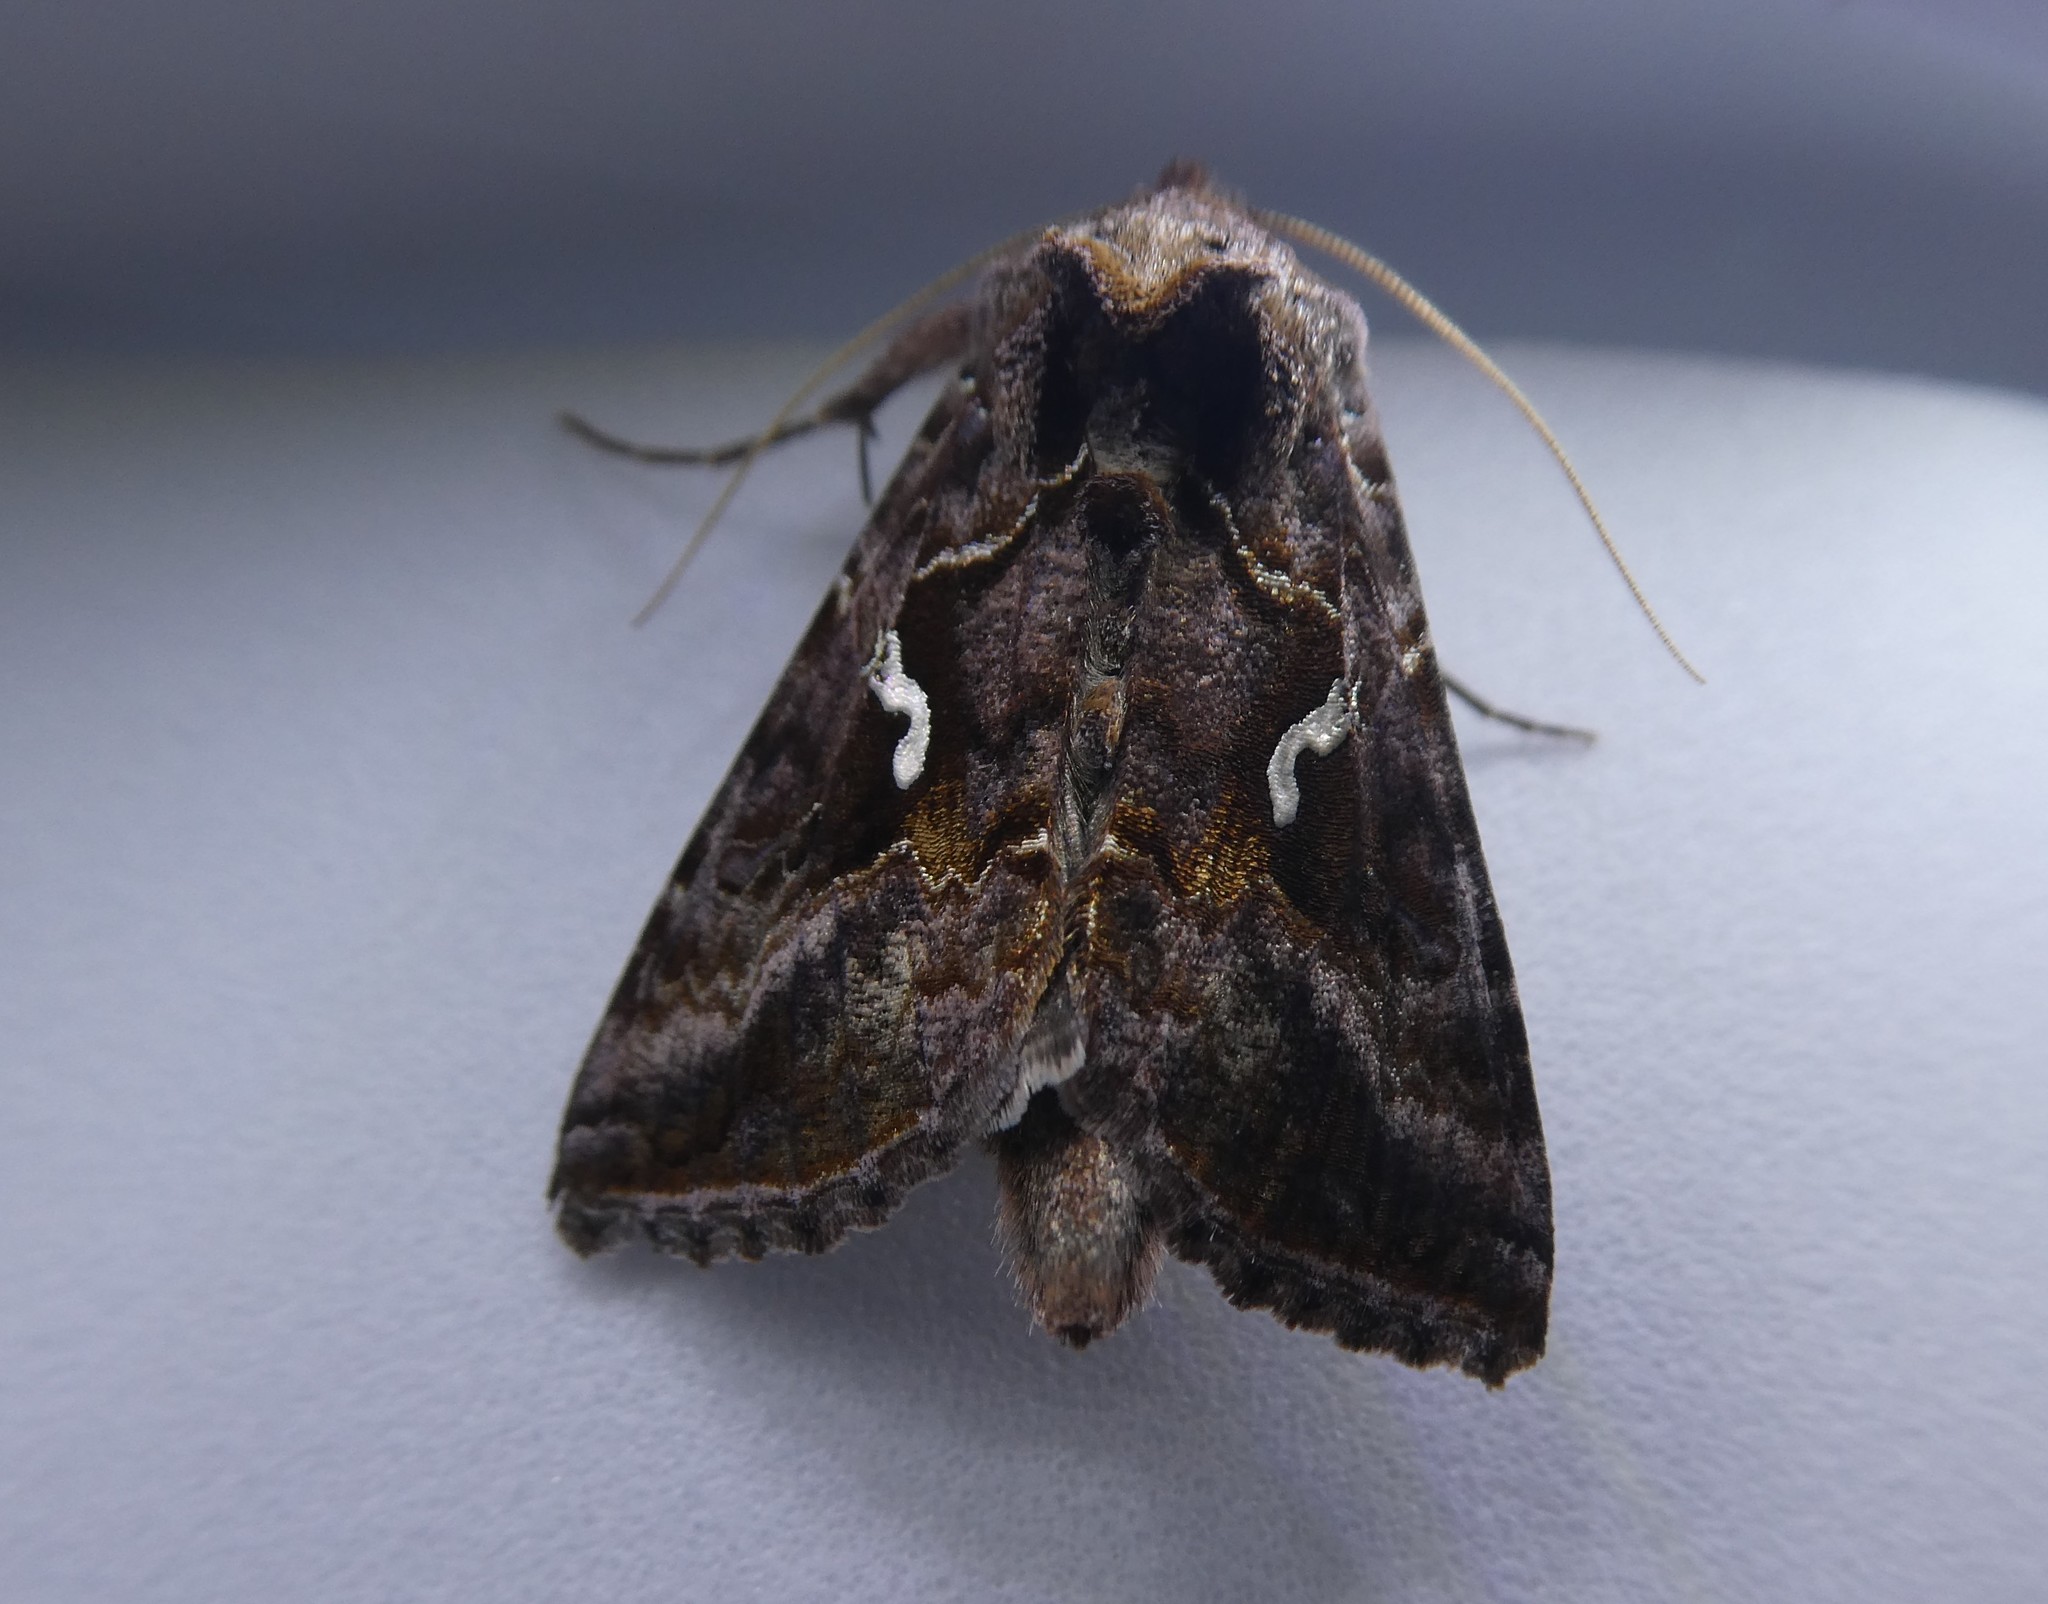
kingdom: Animalia
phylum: Arthropoda
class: Insecta
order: Lepidoptera
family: Noctuidae
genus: Autographa
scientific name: Autographa precationis
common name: Common looper moth
